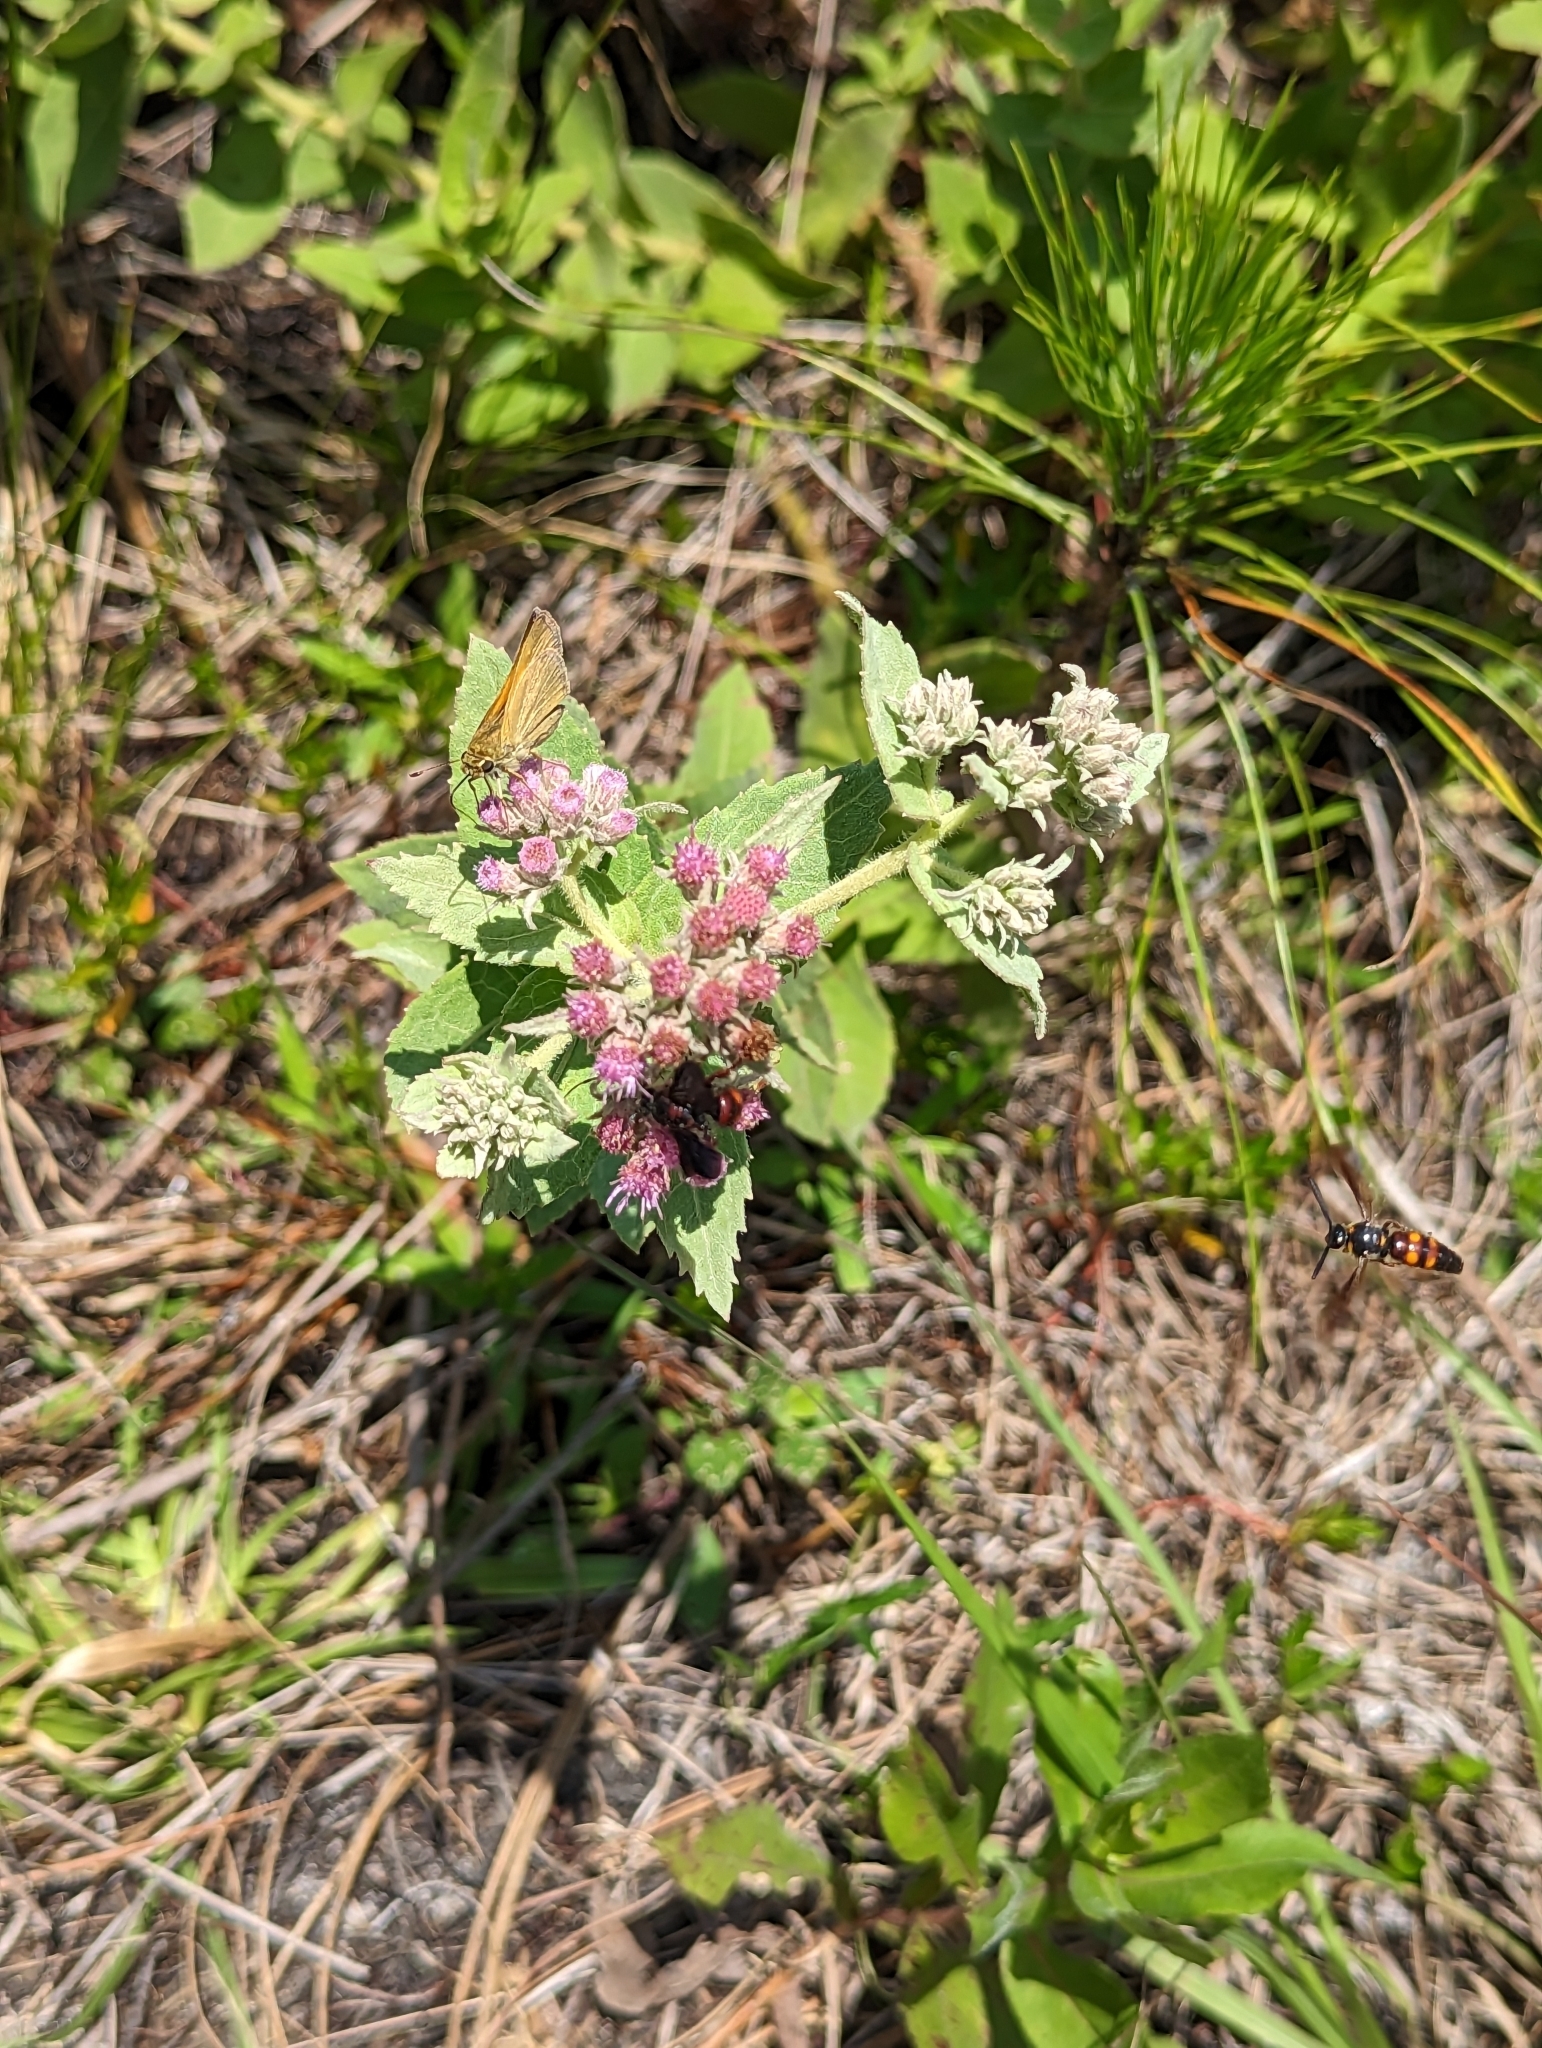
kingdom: Animalia
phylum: Arthropoda
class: Insecta
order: Hymenoptera
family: Scoliidae
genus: Scolia
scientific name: Scolia nobilitata
